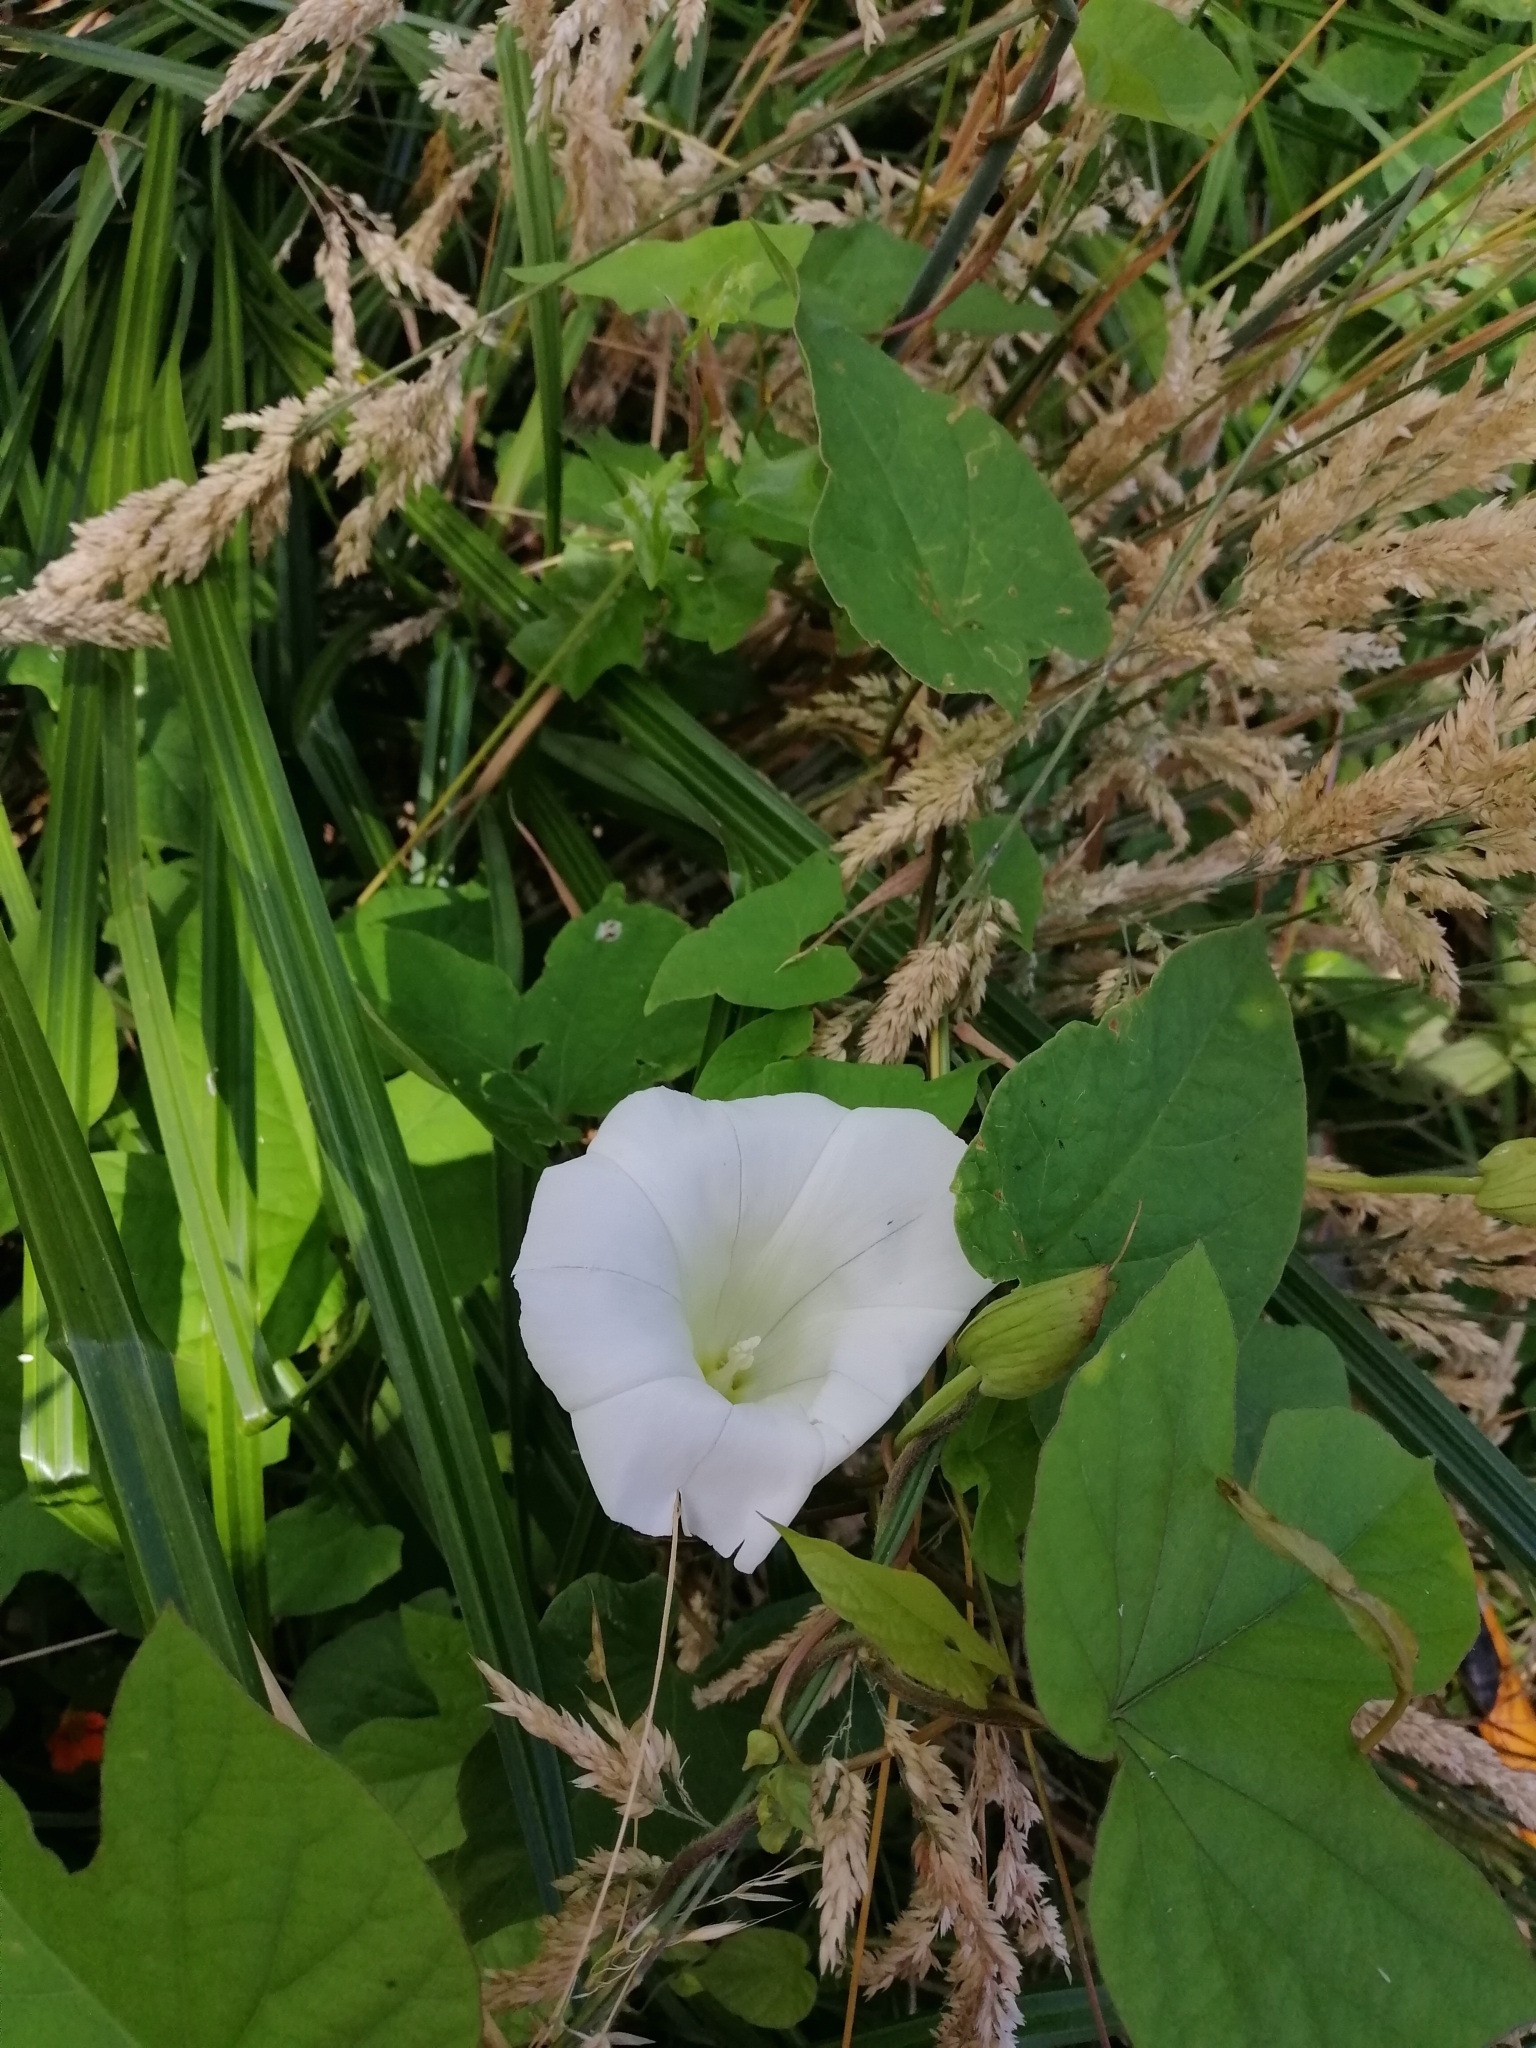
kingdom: Plantae
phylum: Tracheophyta
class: Magnoliopsida
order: Solanales
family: Convolvulaceae
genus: Calystegia
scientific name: Calystegia silvatica
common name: Large bindweed
